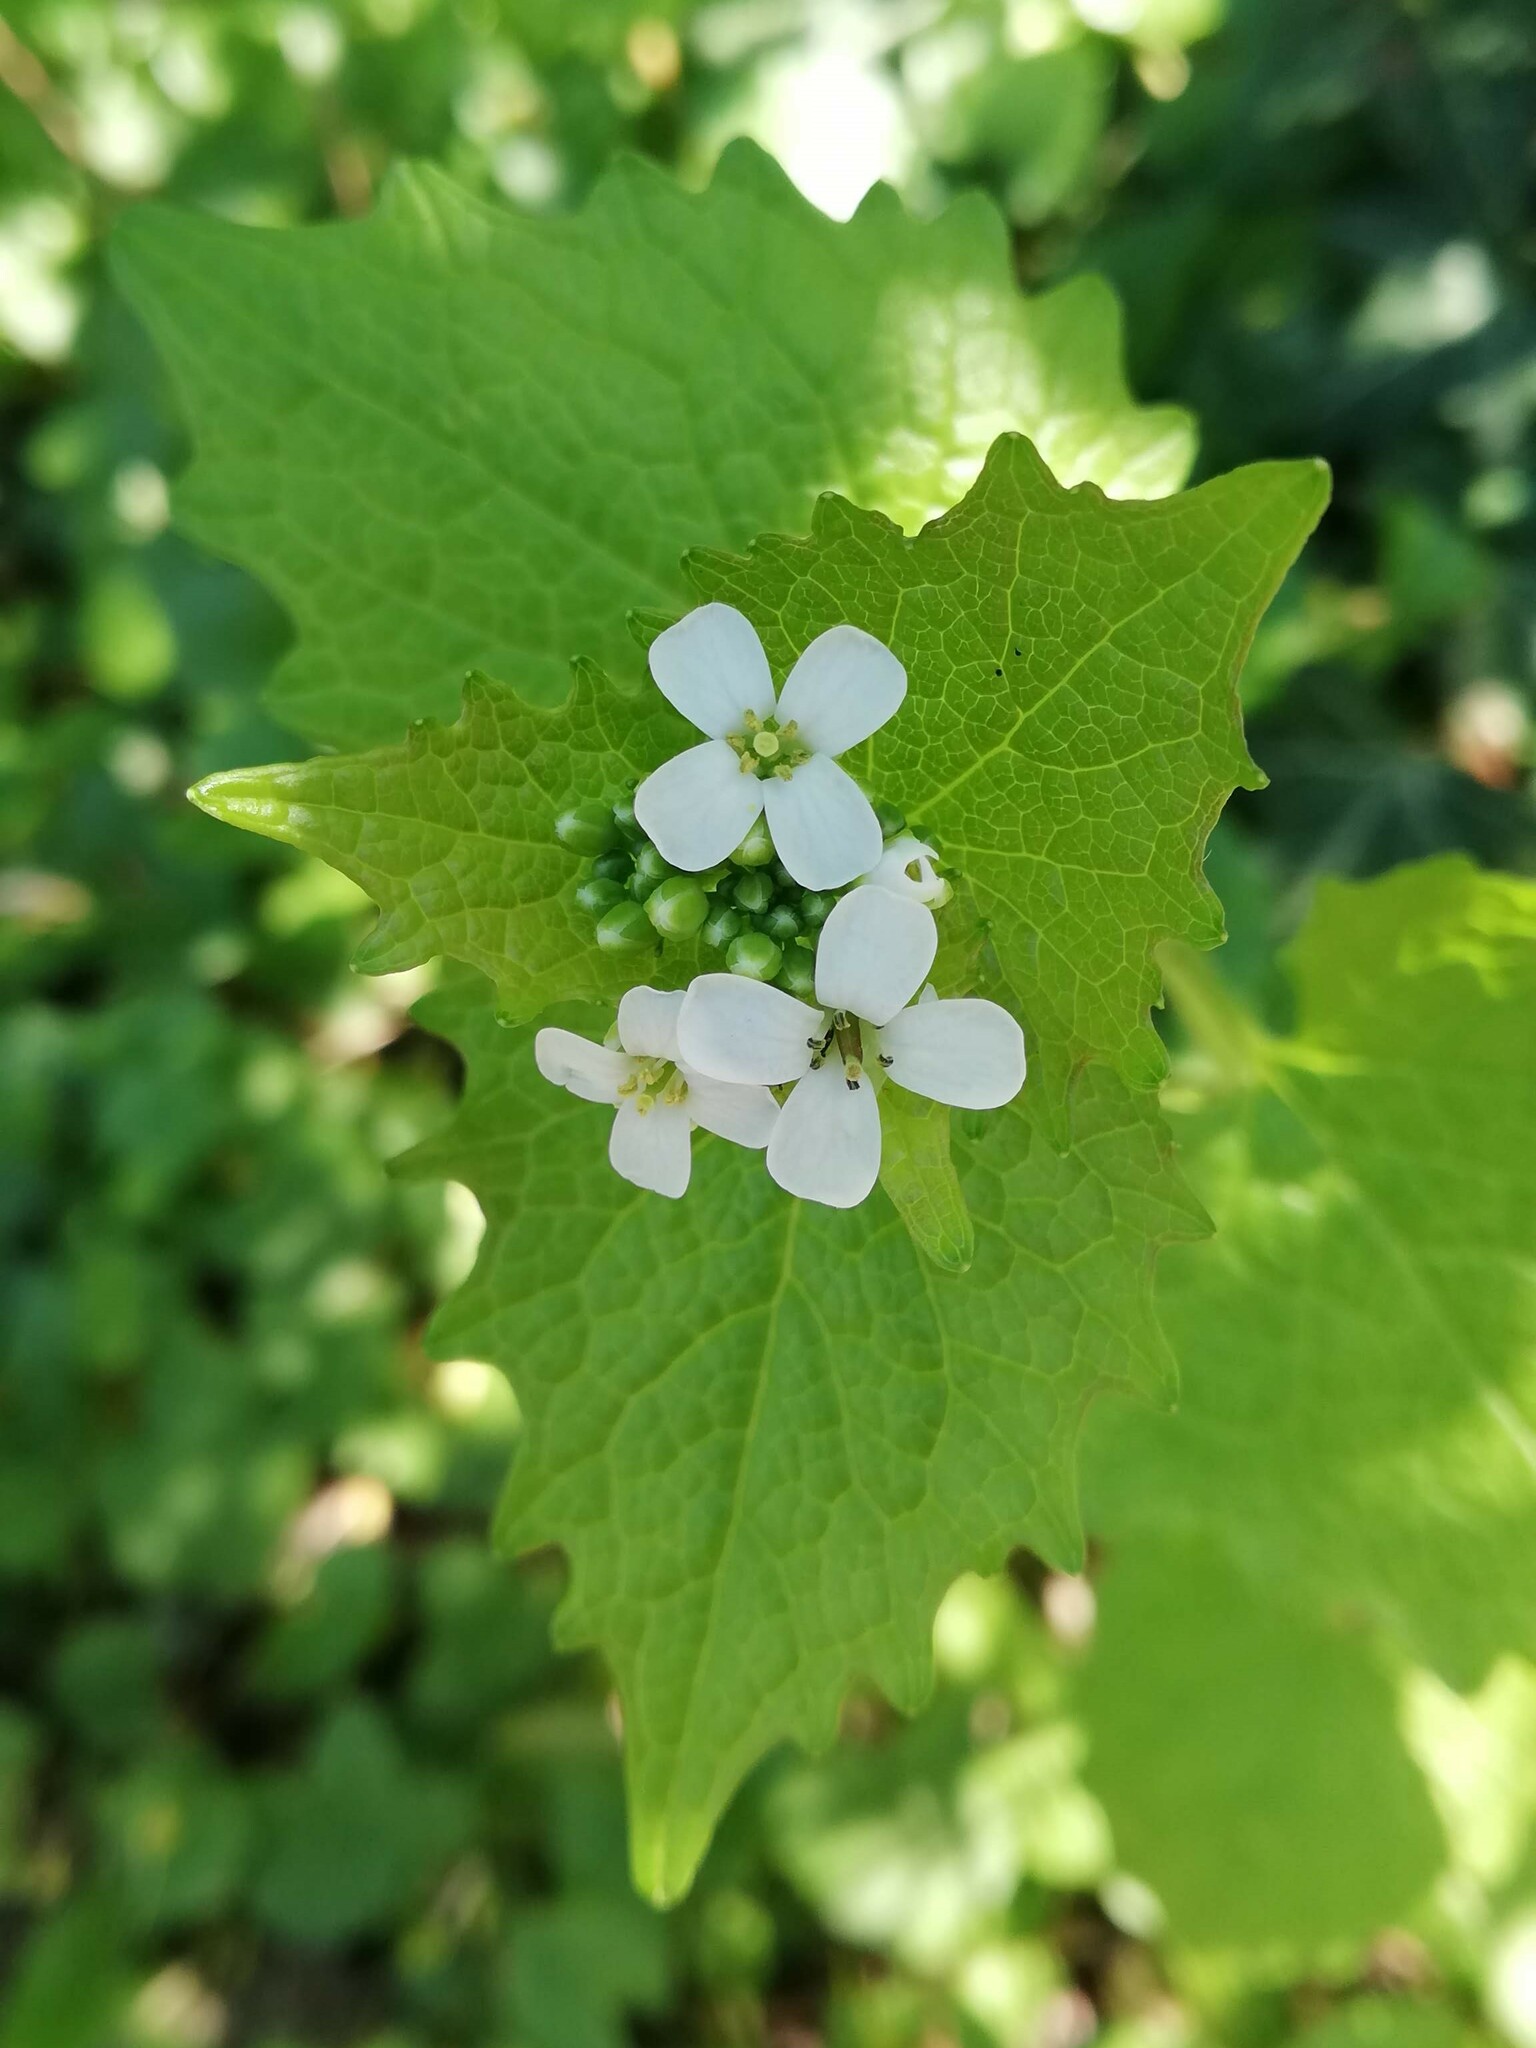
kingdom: Plantae
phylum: Tracheophyta
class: Magnoliopsida
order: Brassicales
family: Brassicaceae
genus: Alliaria
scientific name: Alliaria petiolata
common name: Garlic mustard
